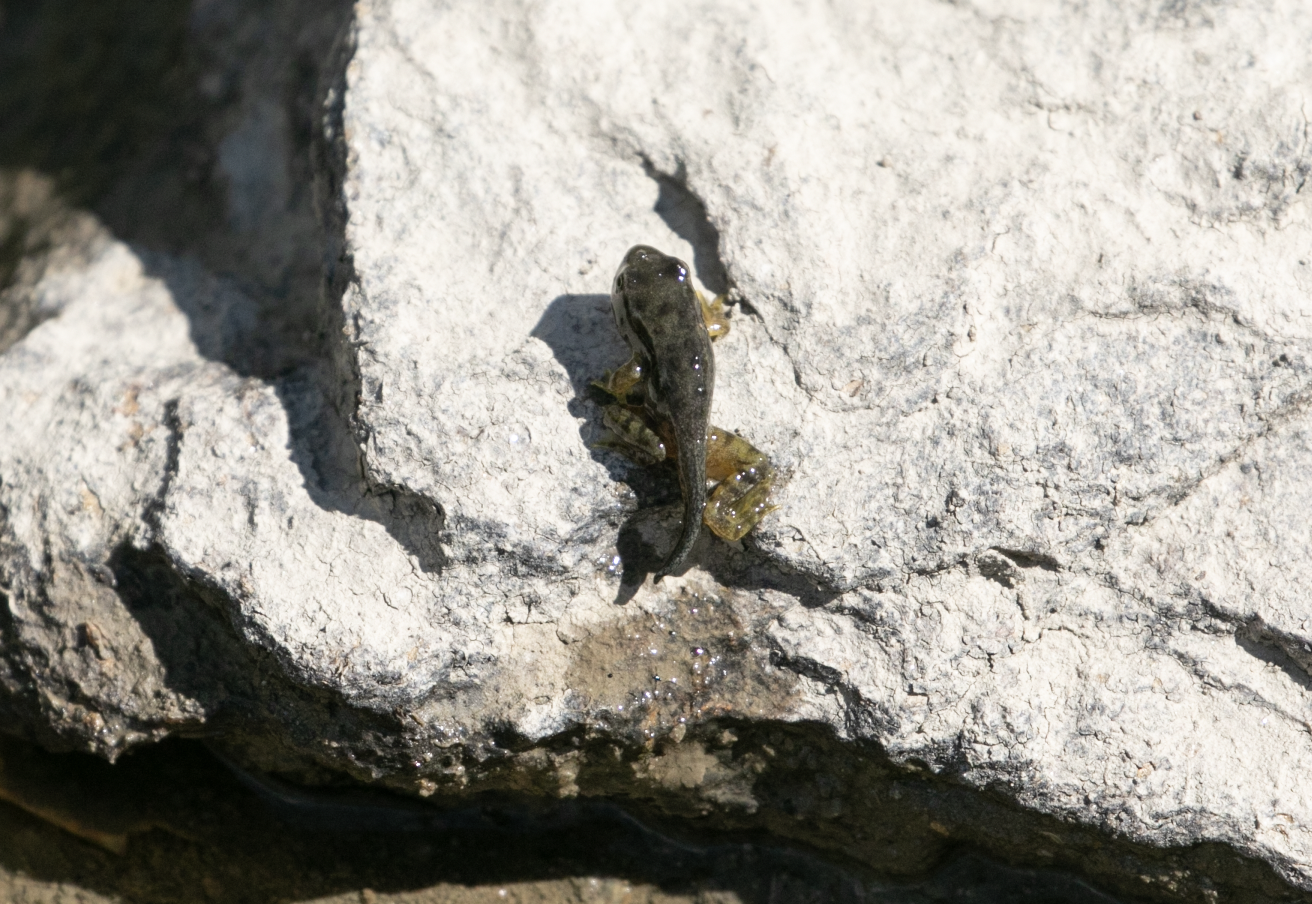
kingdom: Animalia
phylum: Chordata
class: Amphibia
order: Anura
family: Ranidae
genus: Rana
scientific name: Rana temporaria
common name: Common frog
